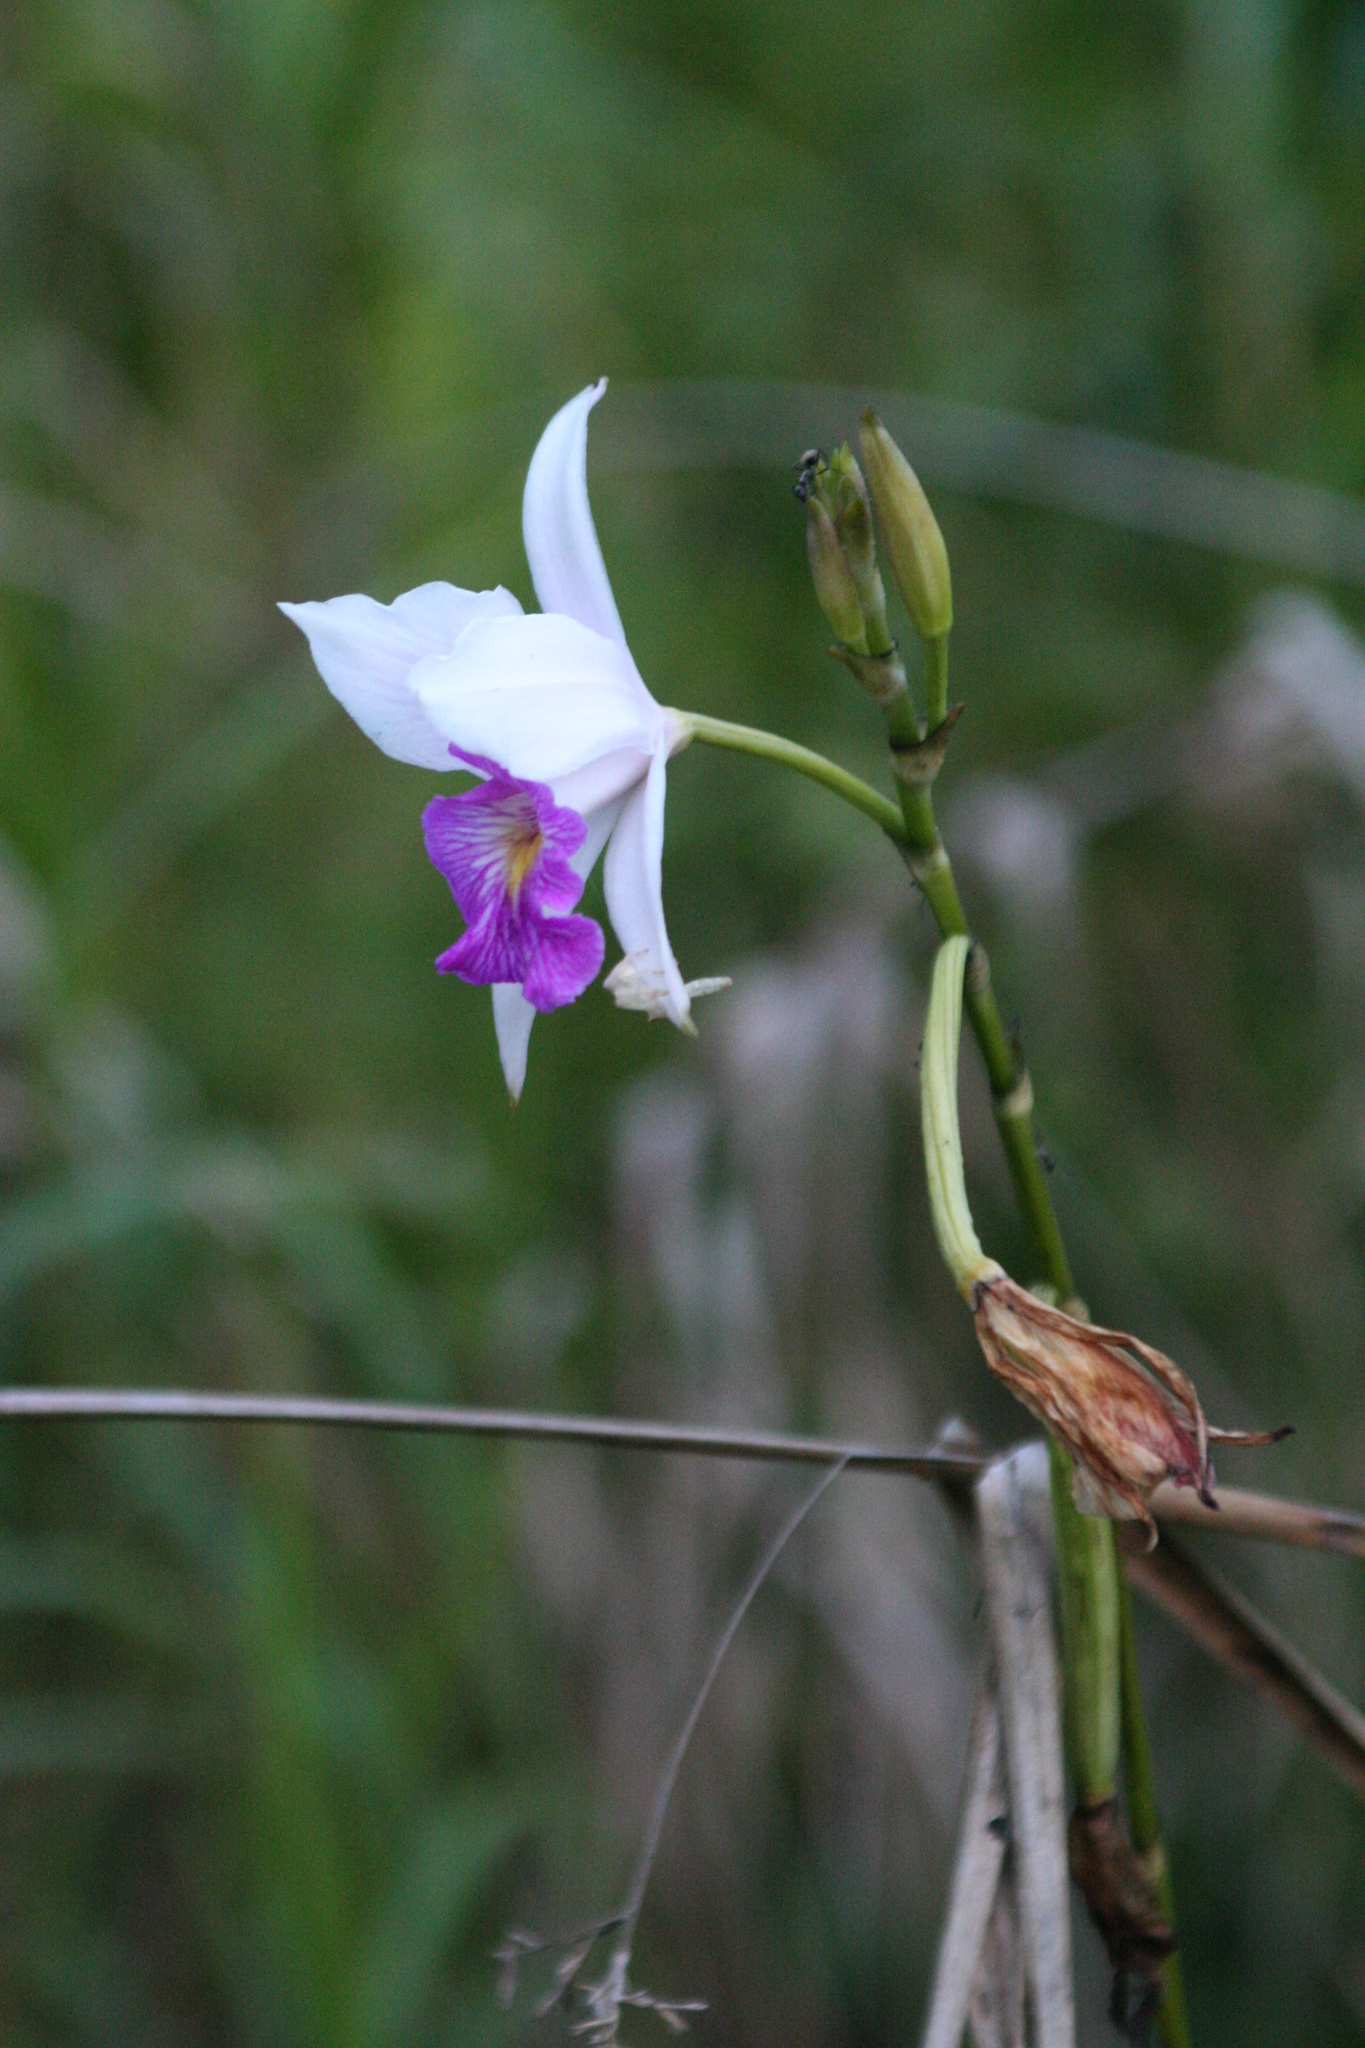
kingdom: Plantae
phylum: Tracheophyta
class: Liliopsida
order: Asparagales
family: Orchidaceae
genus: Arundina
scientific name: Arundina graminifolia
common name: Bamboo orchid
